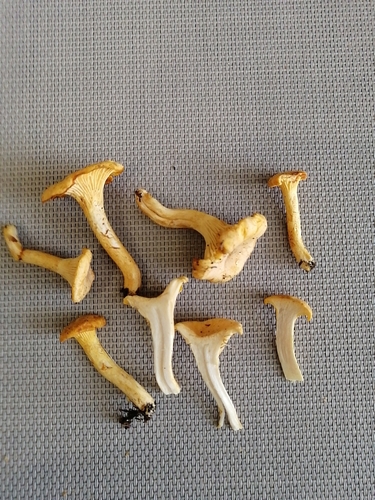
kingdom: Fungi
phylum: Basidiomycota
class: Agaricomycetes
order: Cantharellales
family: Hydnaceae
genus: Cantharellus
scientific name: Cantharellus cibarius
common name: Chanterelle
